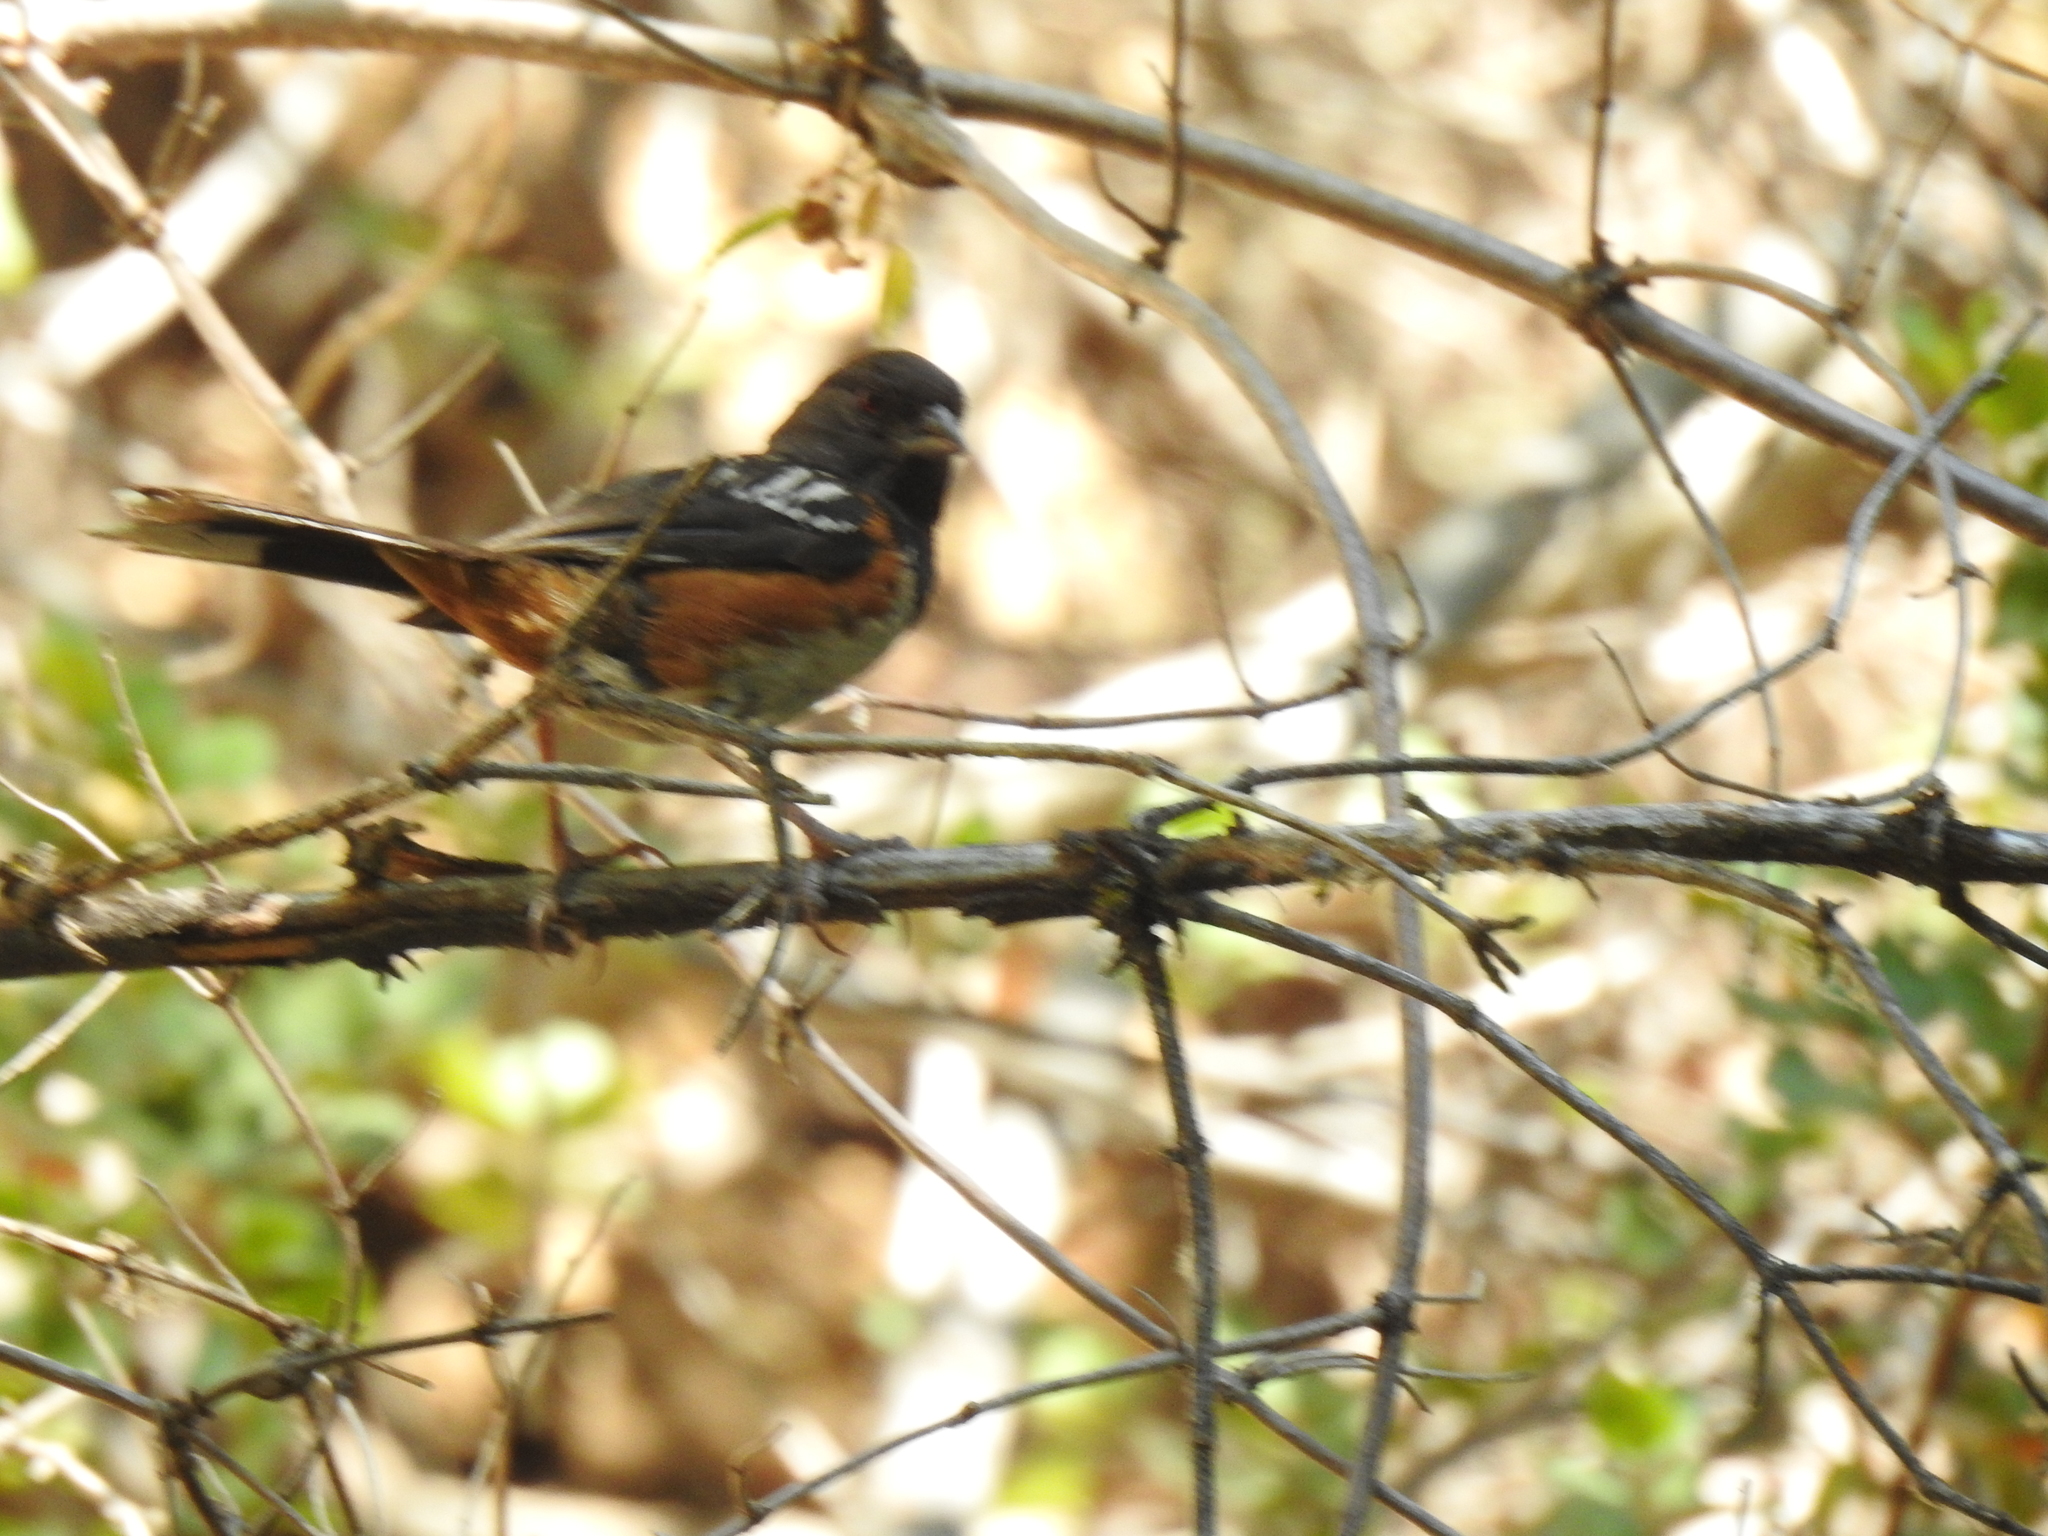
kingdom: Animalia
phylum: Chordata
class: Aves
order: Passeriformes
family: Passerellidae
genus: Pipilo
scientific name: Pipilo maculatus
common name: Spotted towhee
